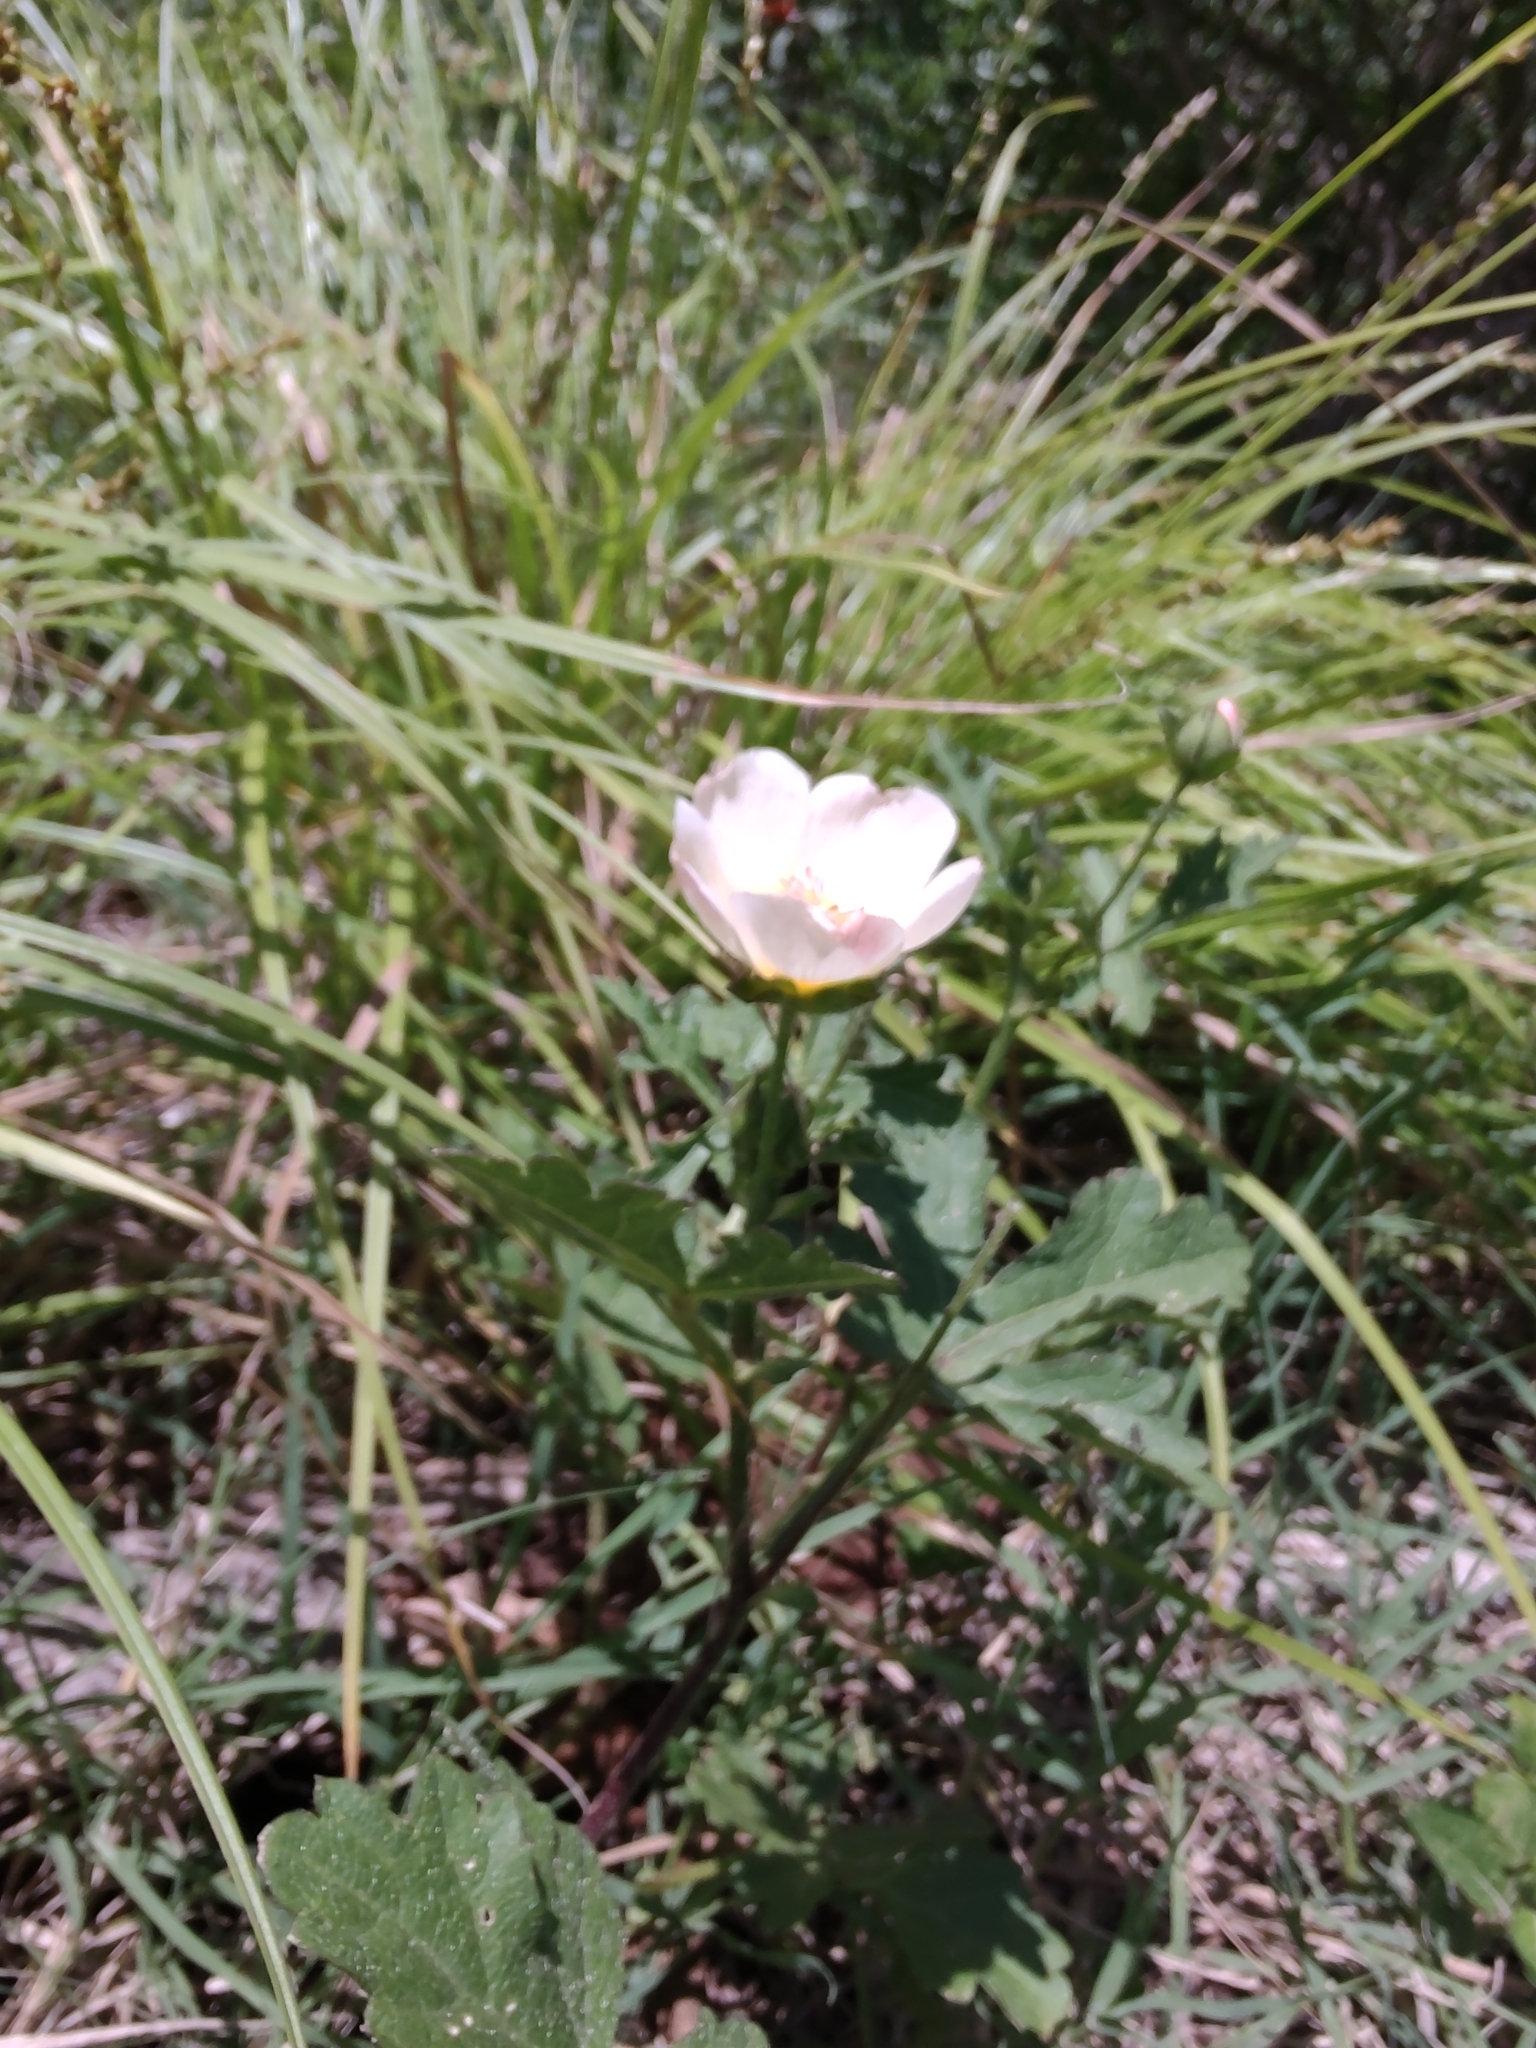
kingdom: Plantae
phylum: Tracheophyta
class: Magnoliopsida
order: Malvales
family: Malvaceae
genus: Modiolastrum
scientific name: Modiolastrum lateritium
